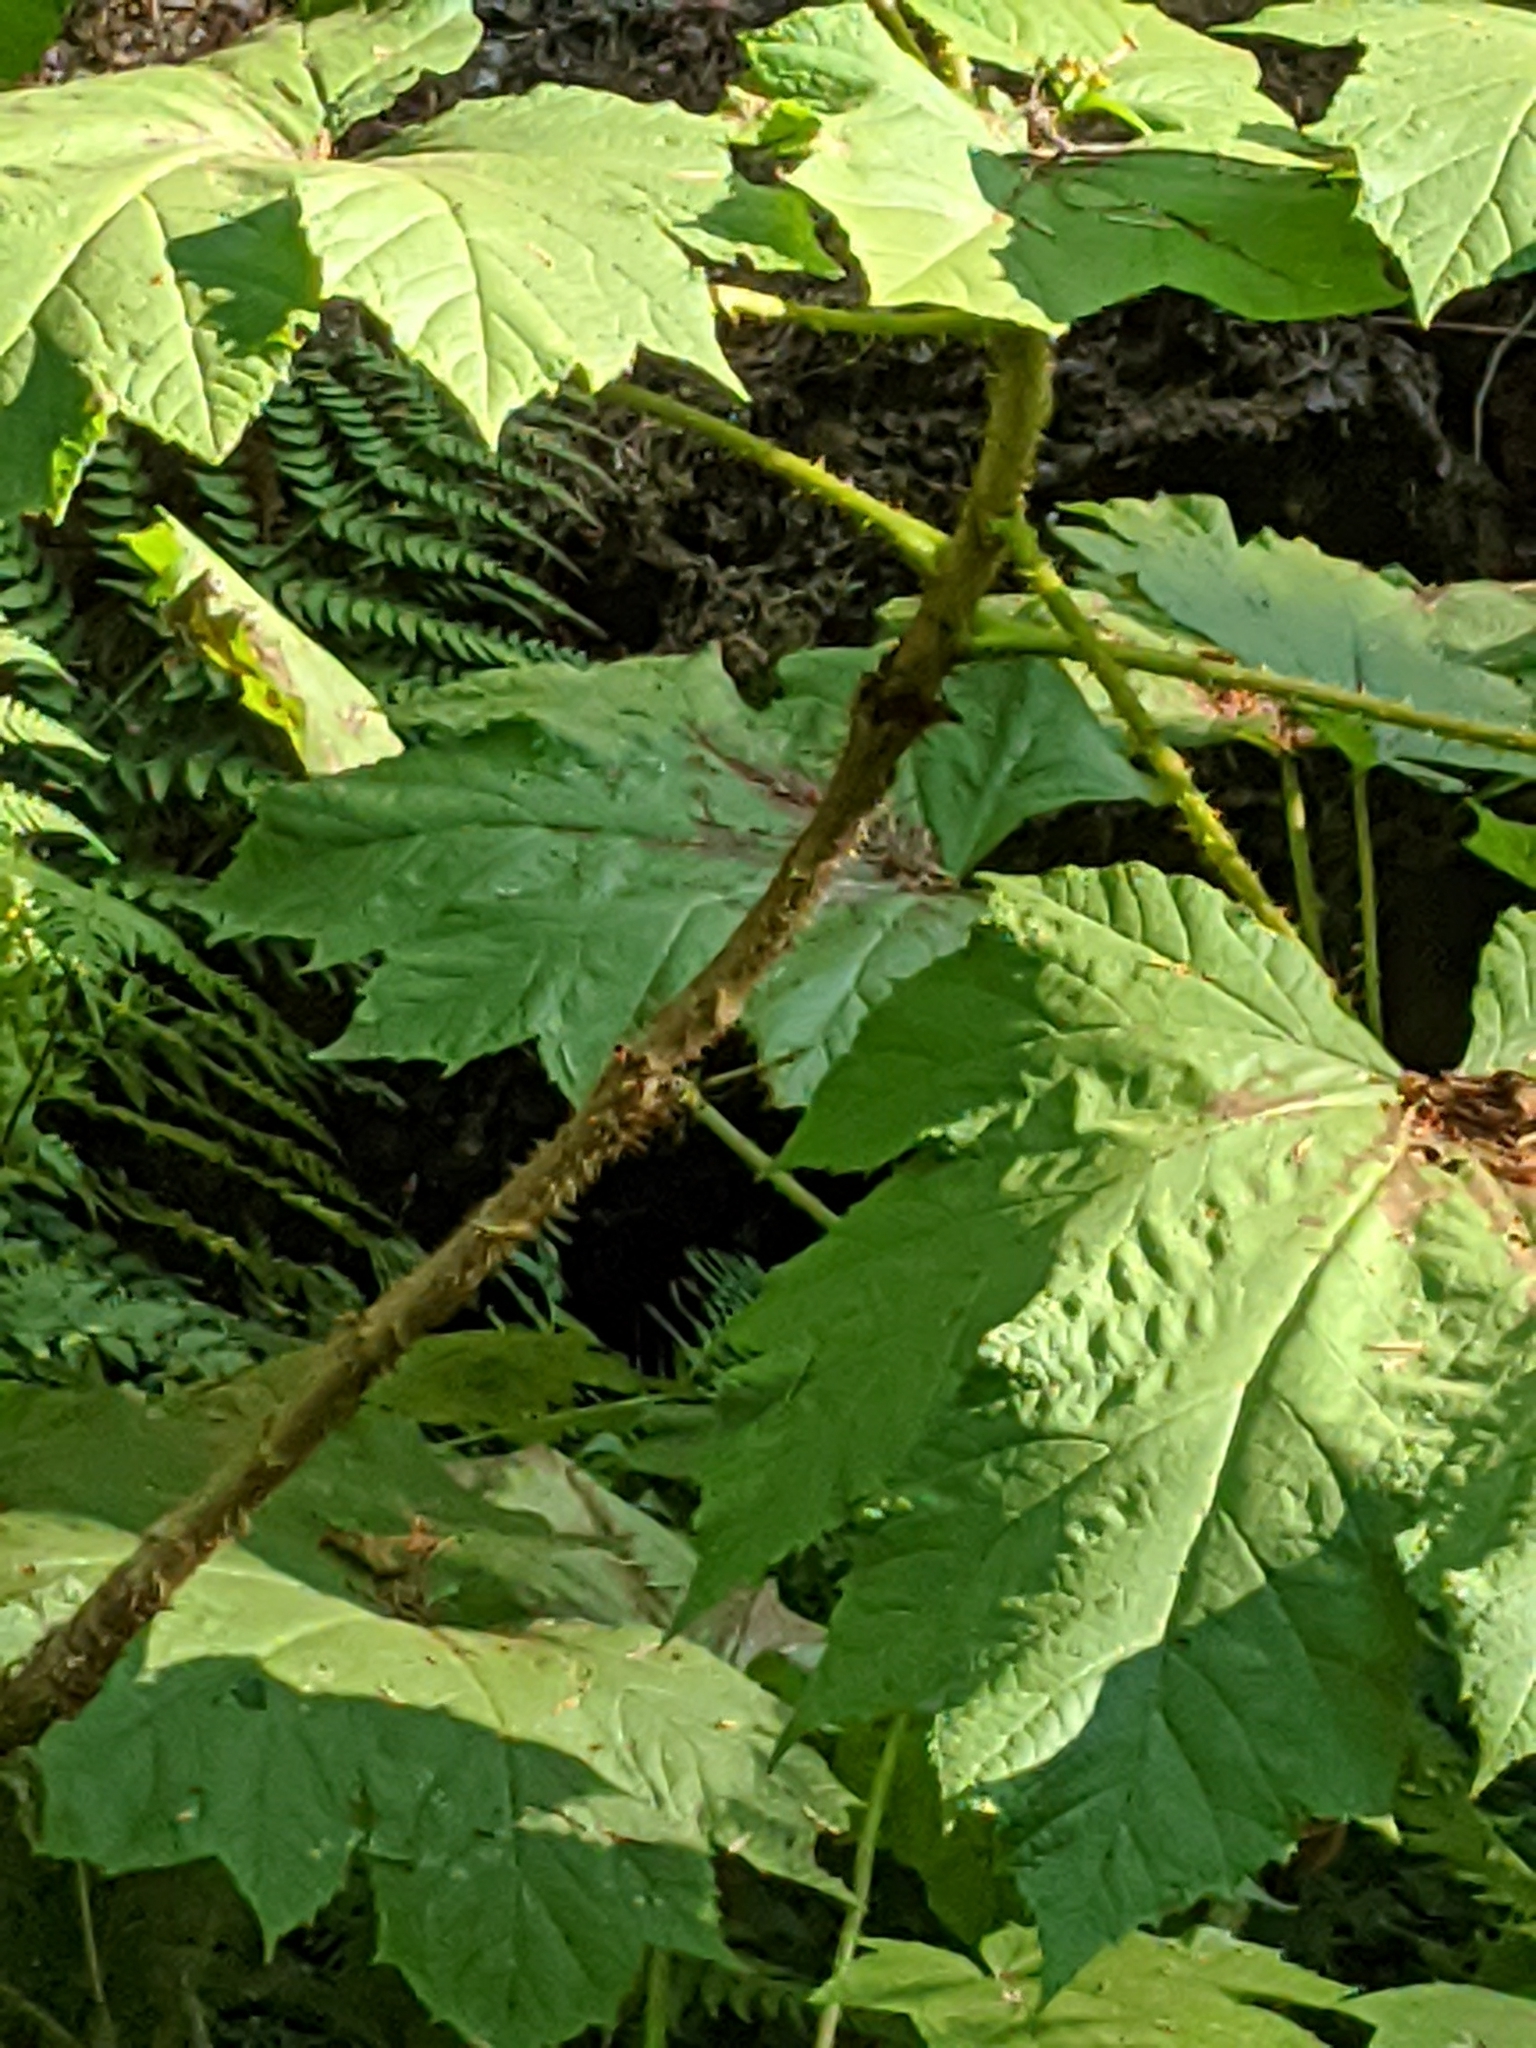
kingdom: Plantae
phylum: Tracheophyta
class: Magnoliopsida
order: Apiales
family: Araliaceae
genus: Oplopanax
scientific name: Oplopanax horridus
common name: Devil's walking-stick
